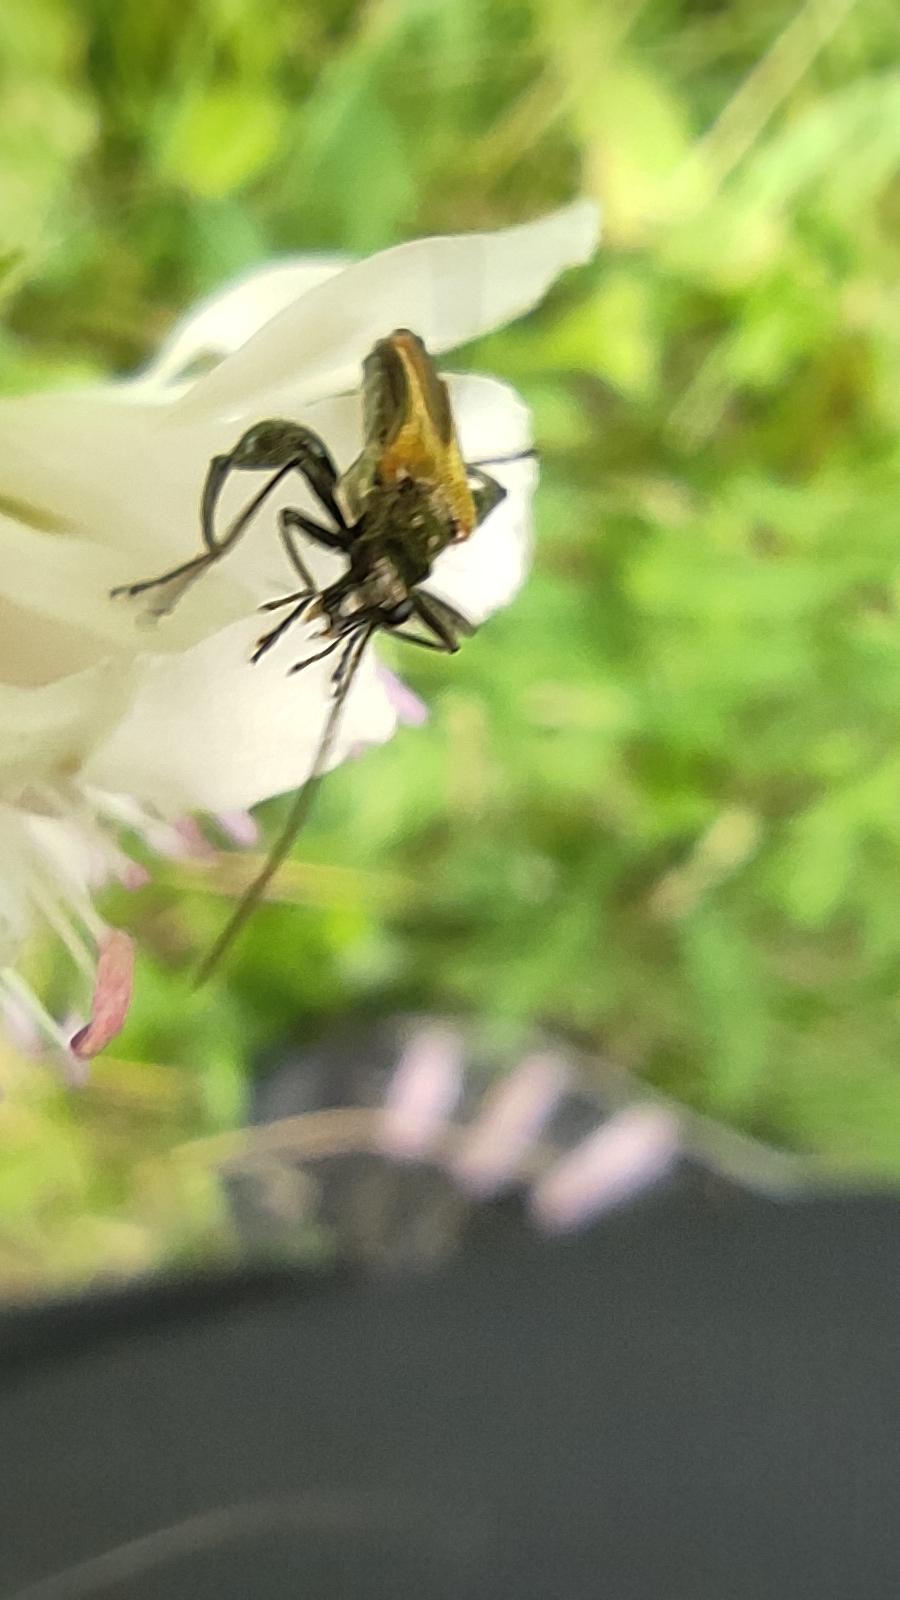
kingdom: Animalia
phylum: Arthropoda
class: Insecta
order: Coleoptera
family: Oedemeridae
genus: Oedemera
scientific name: Oedemera femorata
